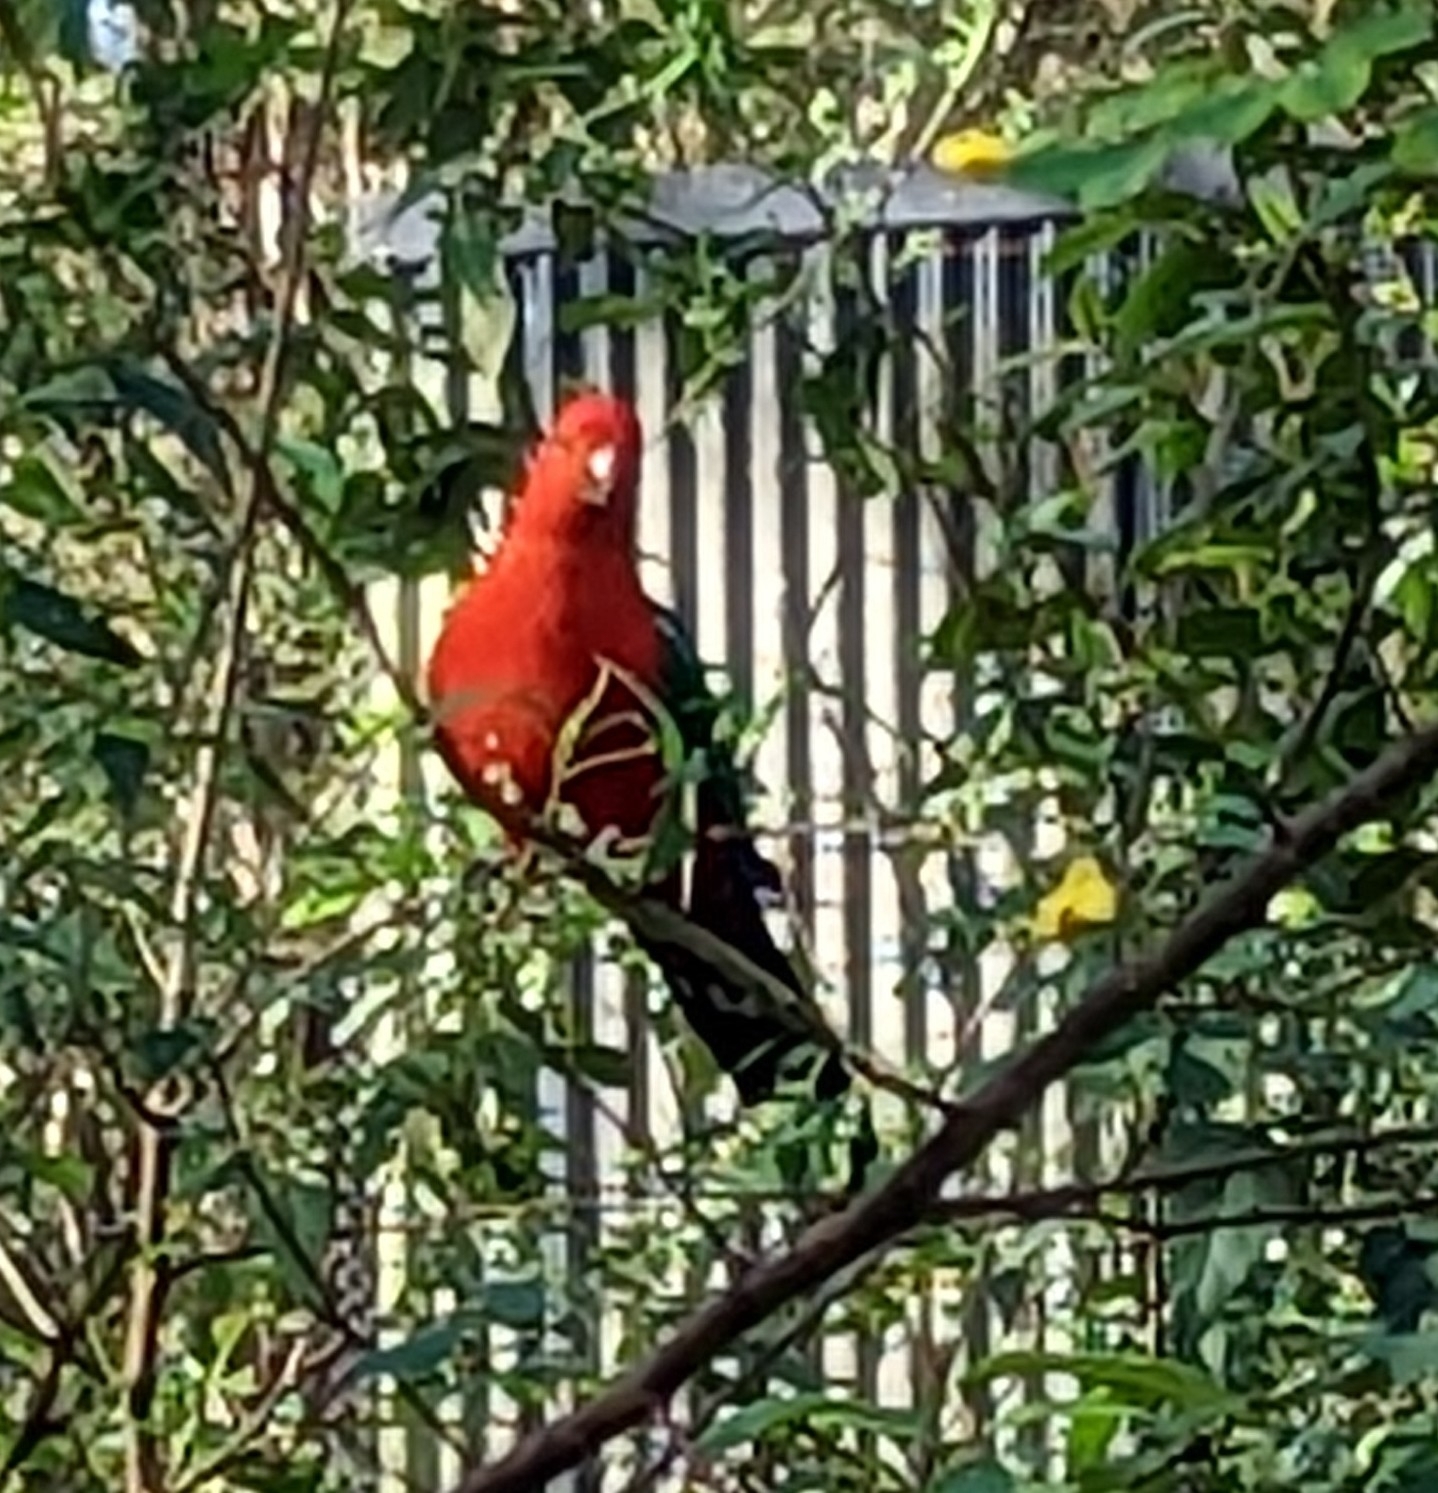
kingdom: Animalia
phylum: Chordata
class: Aves
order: Psittaciformes
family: Psittacidae
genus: Alisterus
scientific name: Alisterus scapularis
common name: Australian king parrot
